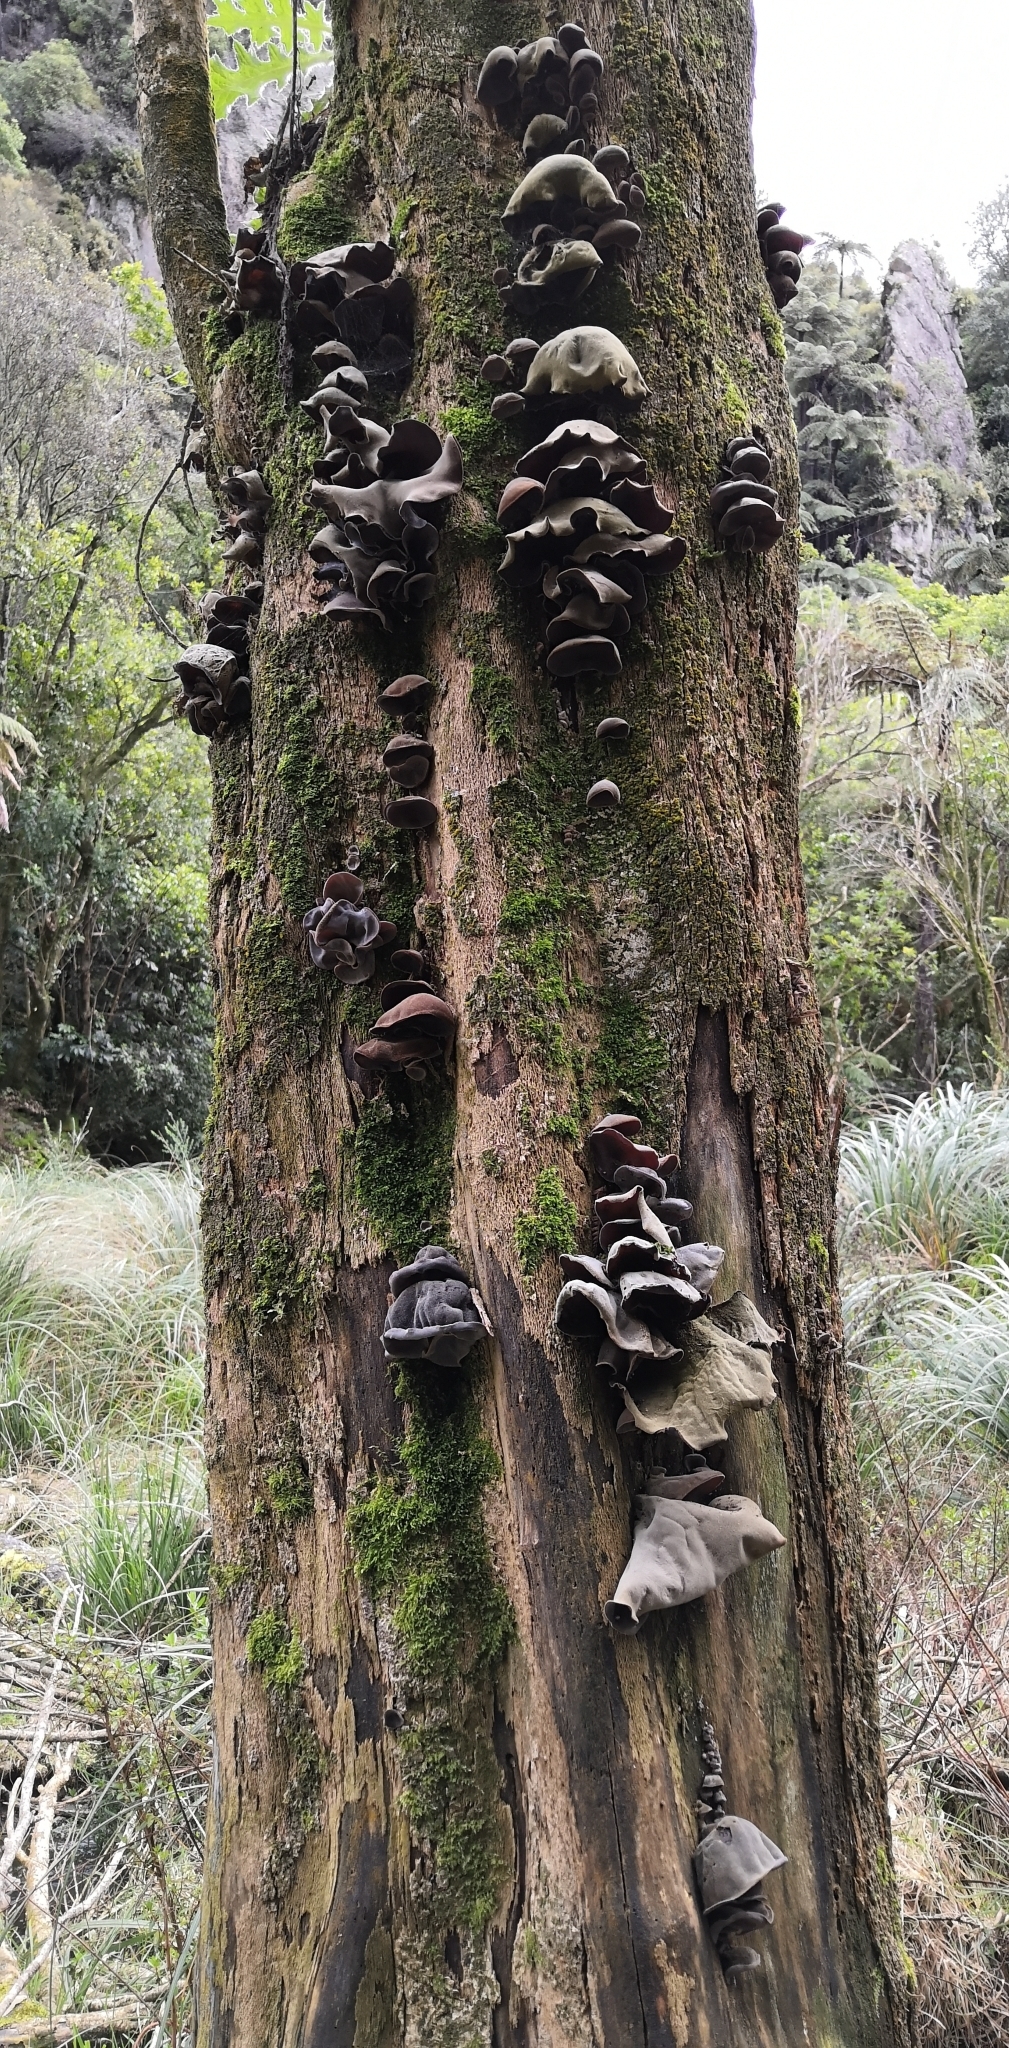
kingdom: Fungi
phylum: Basidiomycota
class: Agaricomycetes
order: Auriculariales
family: Auriculariaceae
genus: Auricularia
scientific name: Auricularia cornea
